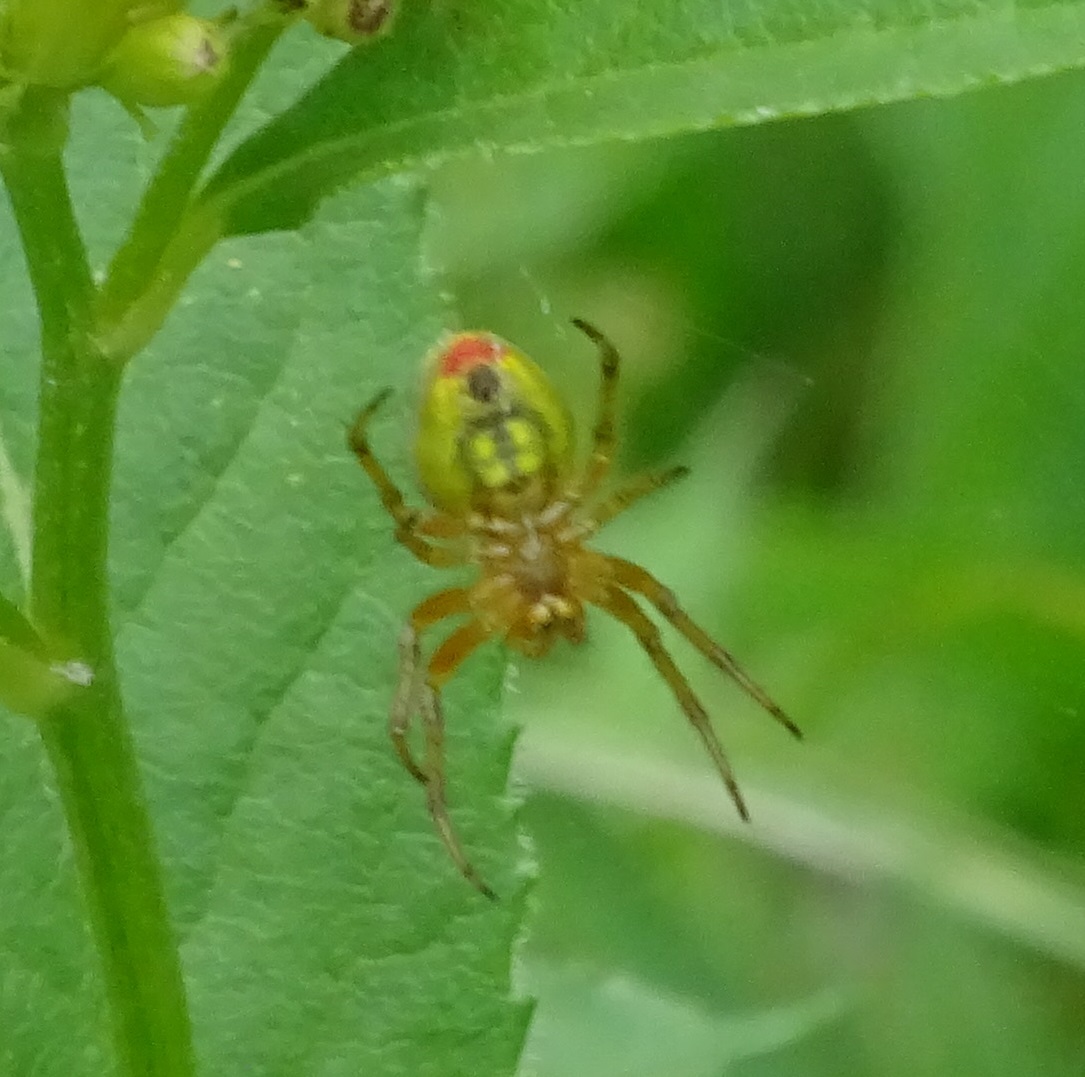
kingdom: Animalia
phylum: Arthropoda
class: Arachnida
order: Araneae
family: Araneidae
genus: Araniella
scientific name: Araniella alpica
